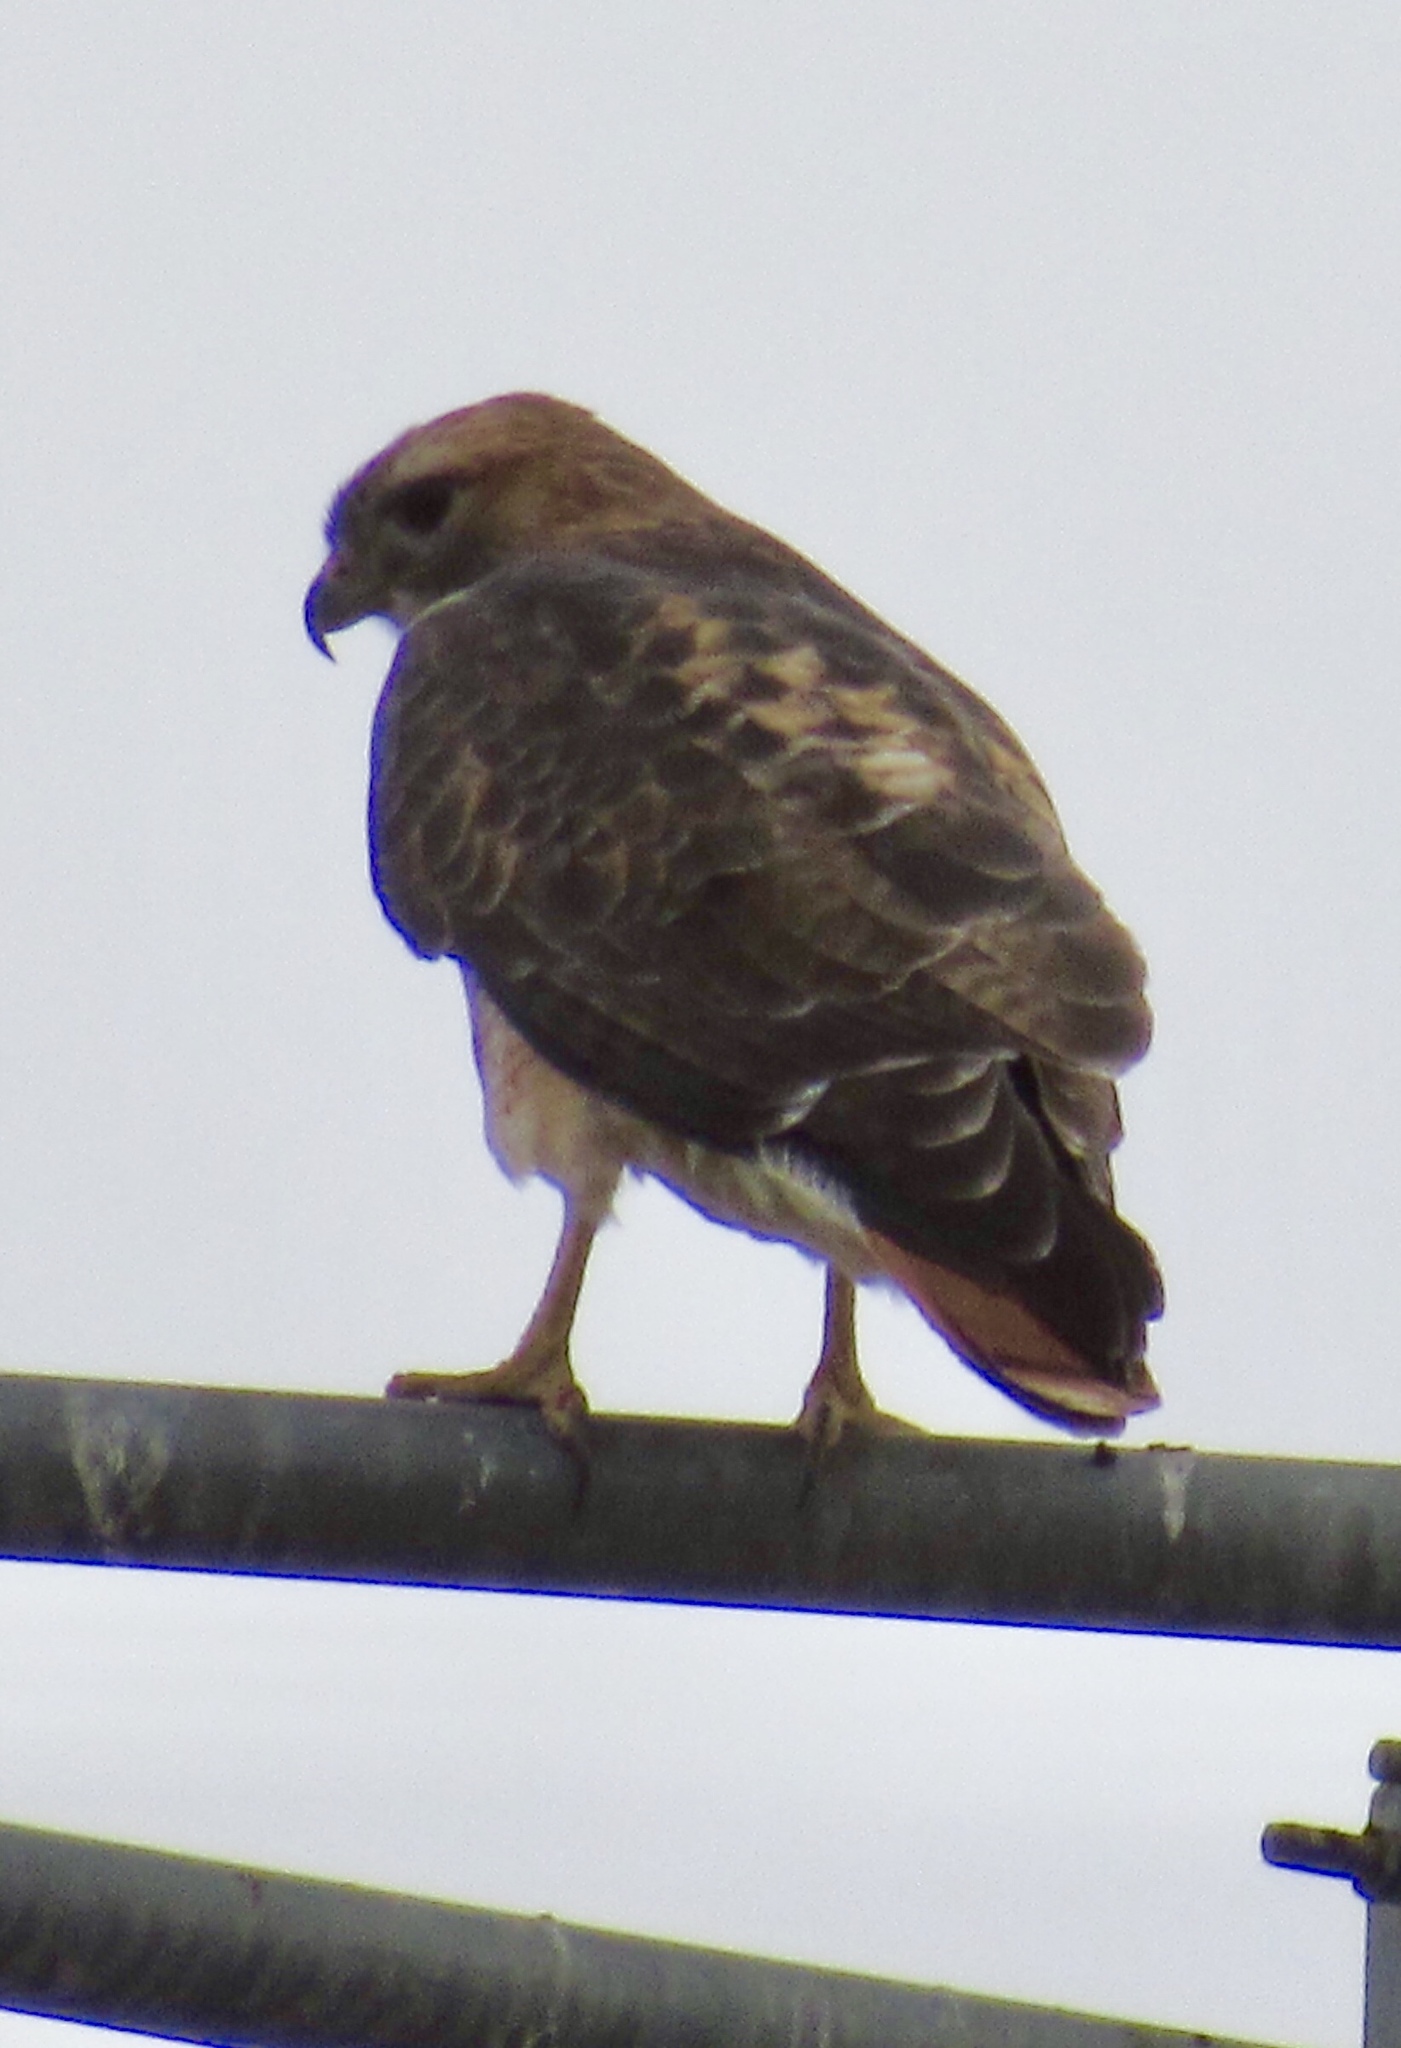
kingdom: Animalia
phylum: Chordata
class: Aves
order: Accipitriformes
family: Accipitridae
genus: Buteo
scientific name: Buteo jamaicensis
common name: Red-tailed hawk
